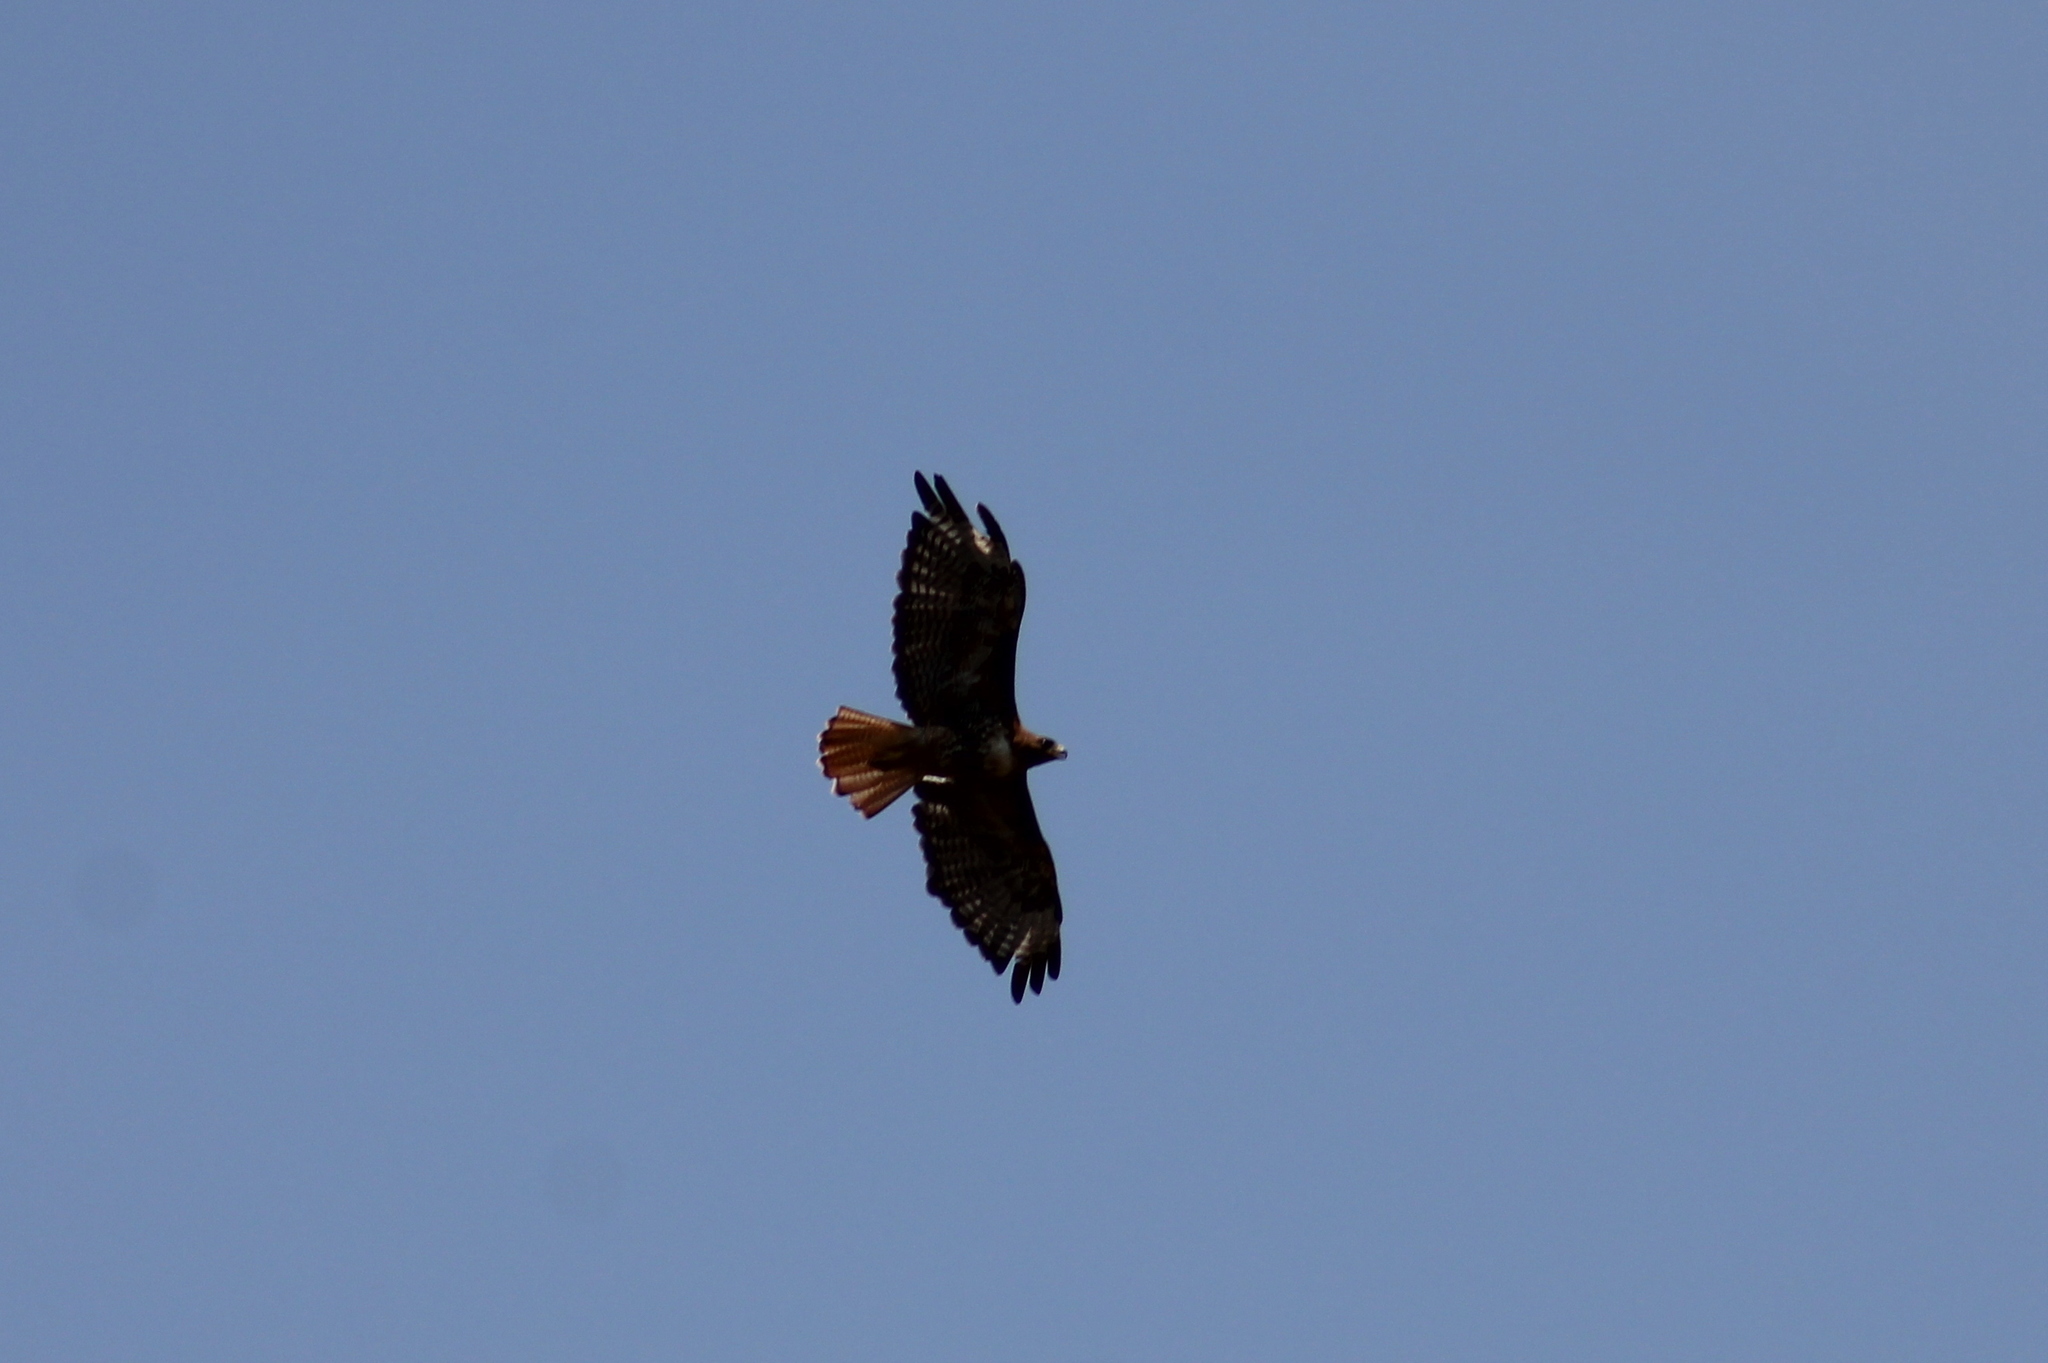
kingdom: Animalia
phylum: Chordata
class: Aves
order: Accipitriformes
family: Accipitridae
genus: Buteo
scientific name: Buteo jamaicensis
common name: Red-tailed hawk
